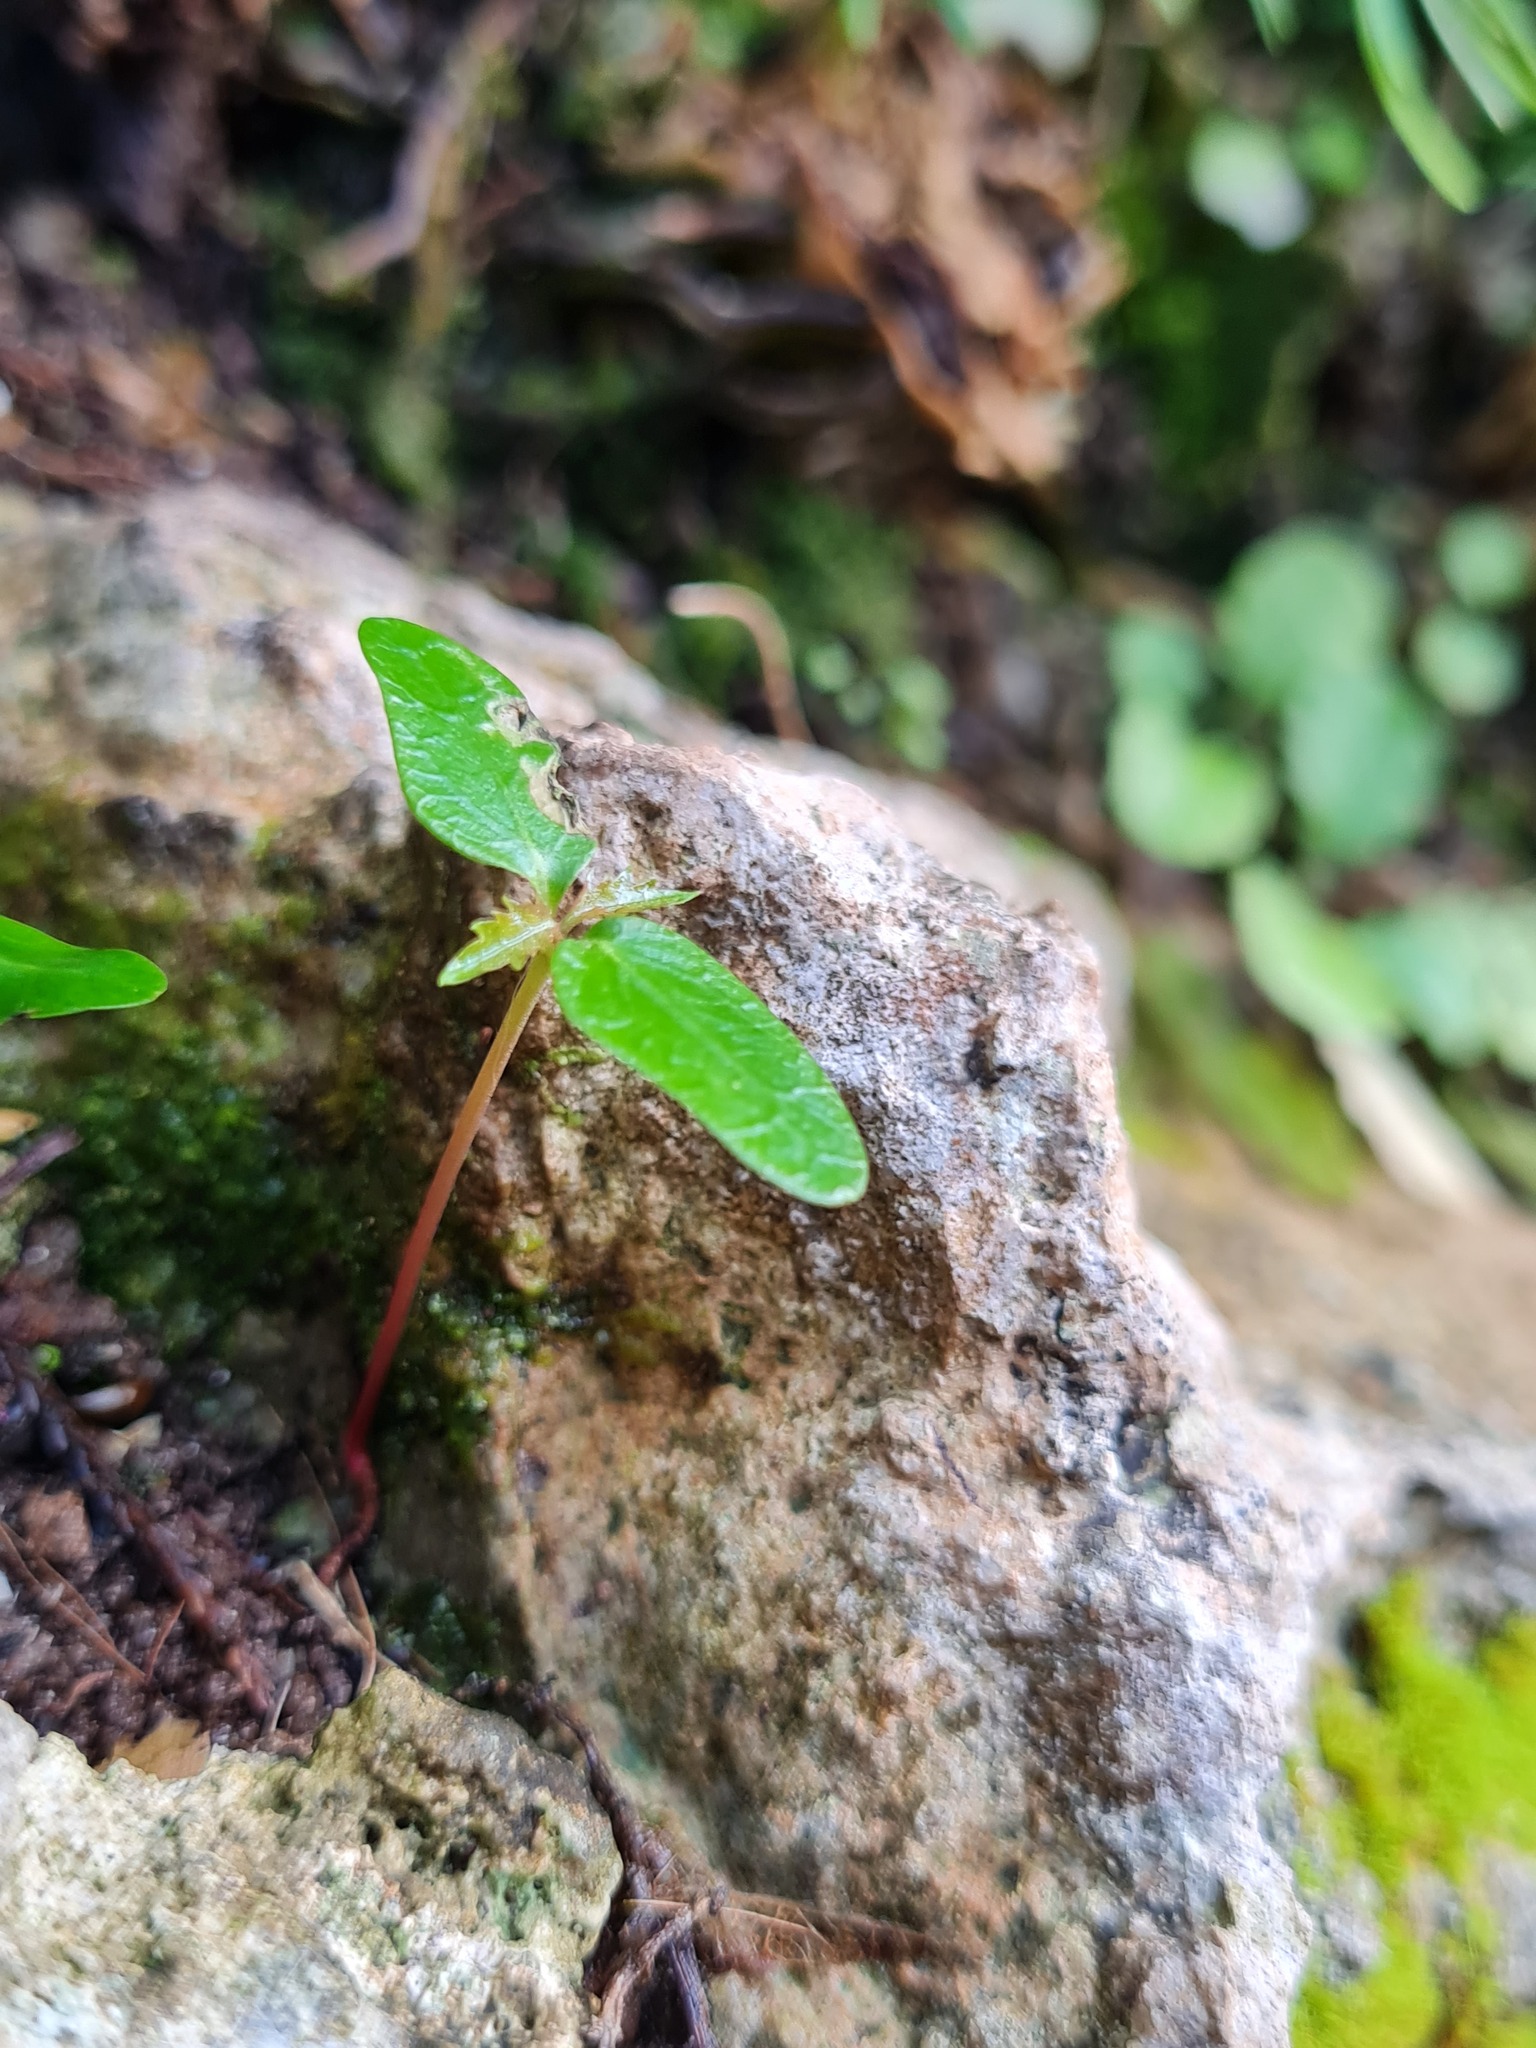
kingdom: Plantae
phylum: Tracheophyta
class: Magnoliopsida
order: Sapindales
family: Anacardiaceae
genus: Schinus
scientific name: Schinus terebinthifolia
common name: Brazilian peppertree
